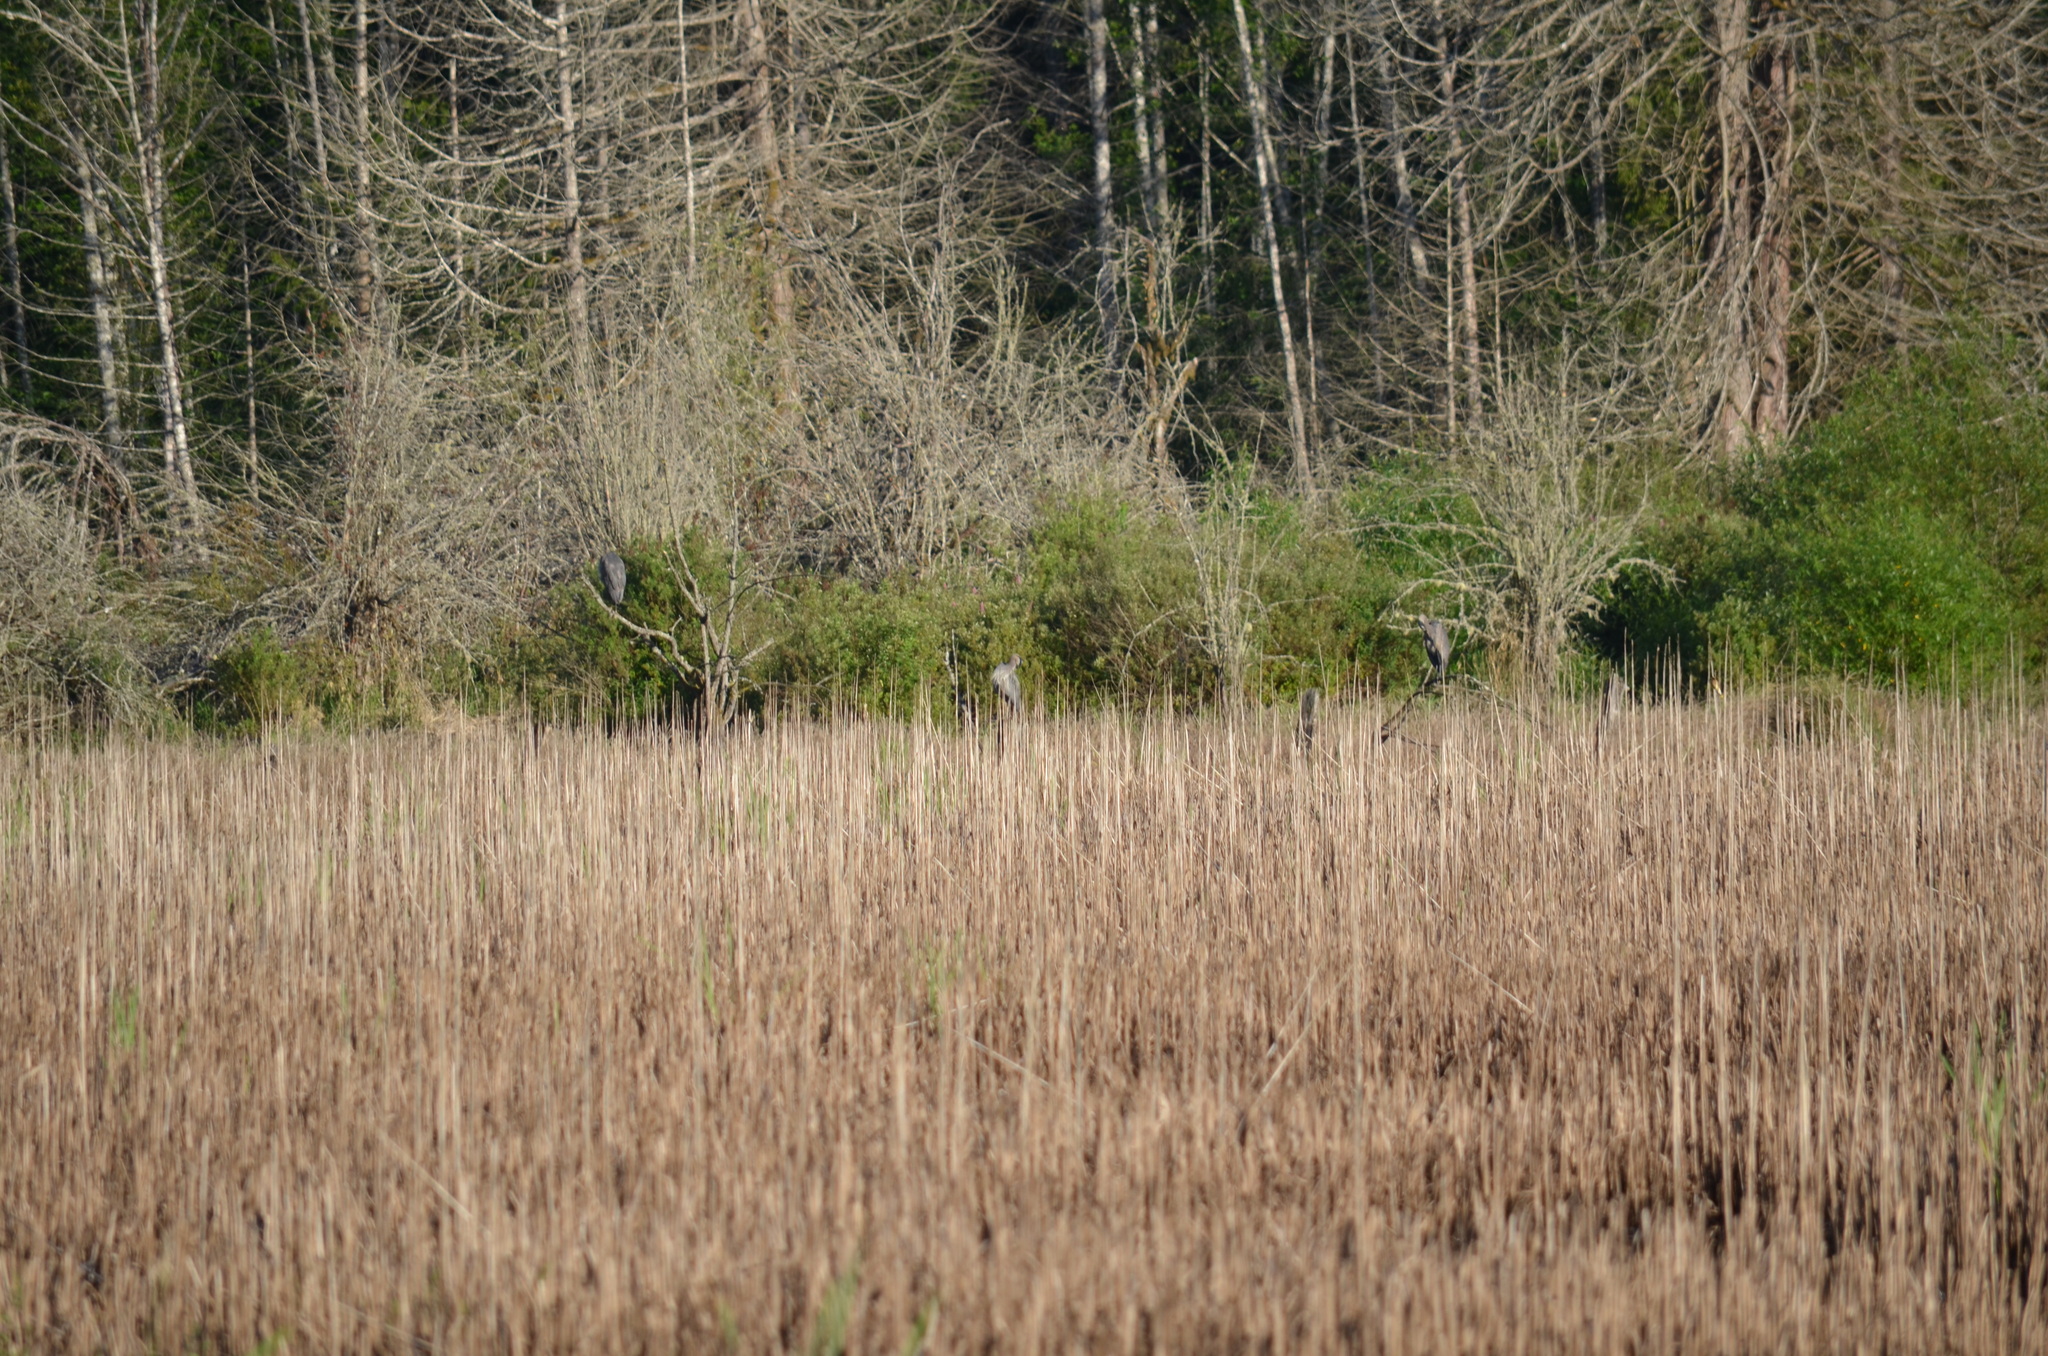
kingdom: Animalia
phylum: Chordata
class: Aves
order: Pelecaniformes
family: Ardeidae
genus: Ardea
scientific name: Ardea herodias
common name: Great blue heron
